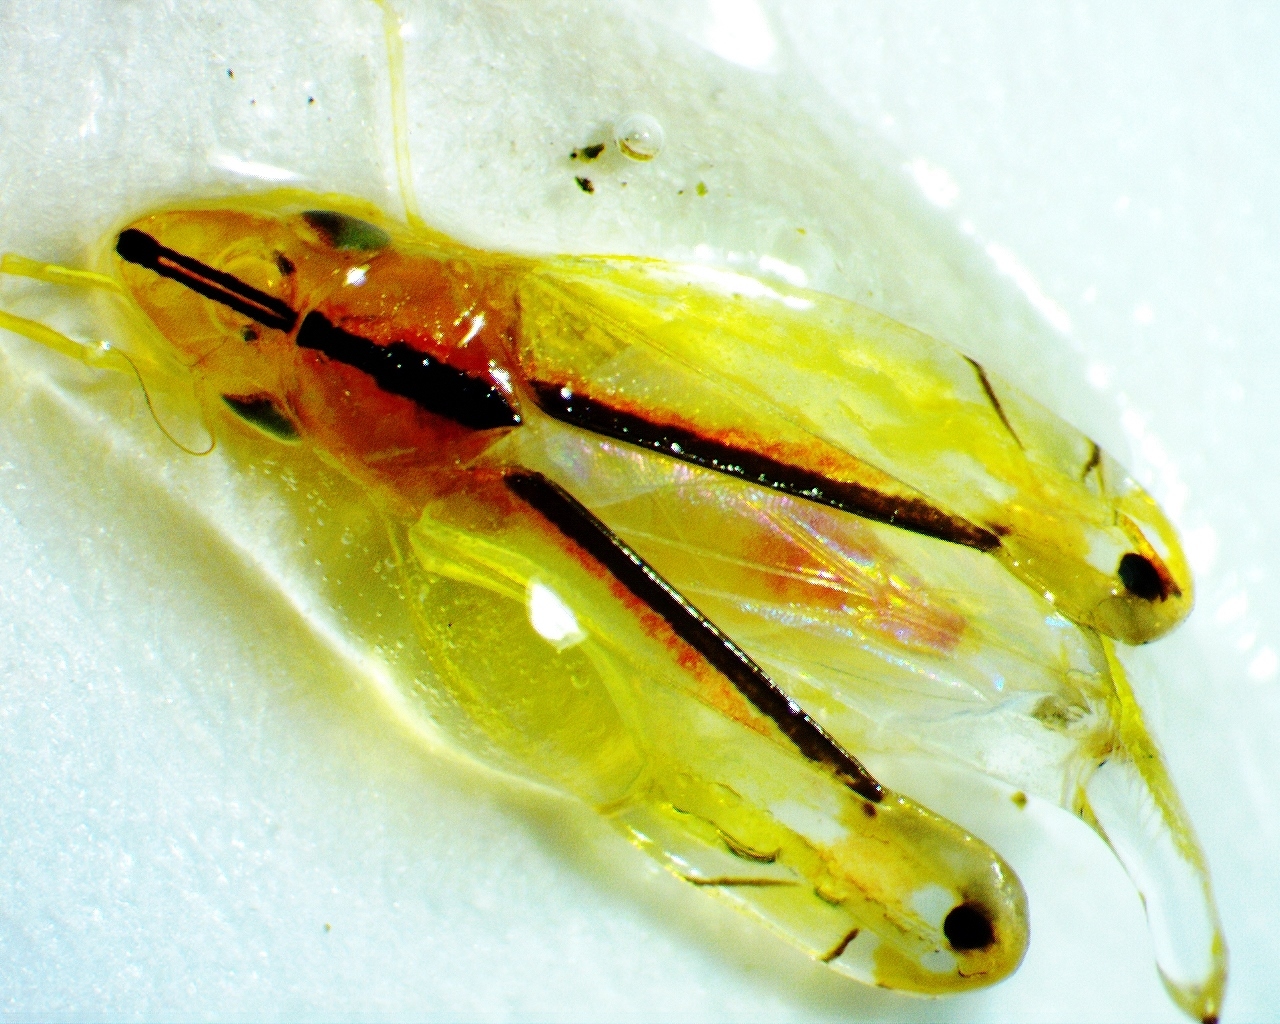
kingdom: Animalia
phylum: Arthropoda
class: Insecta
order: Hemiptera
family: Cicadellidae
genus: Sophonia
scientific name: Sophonia orientalis
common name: Two-spotted leafhopper
